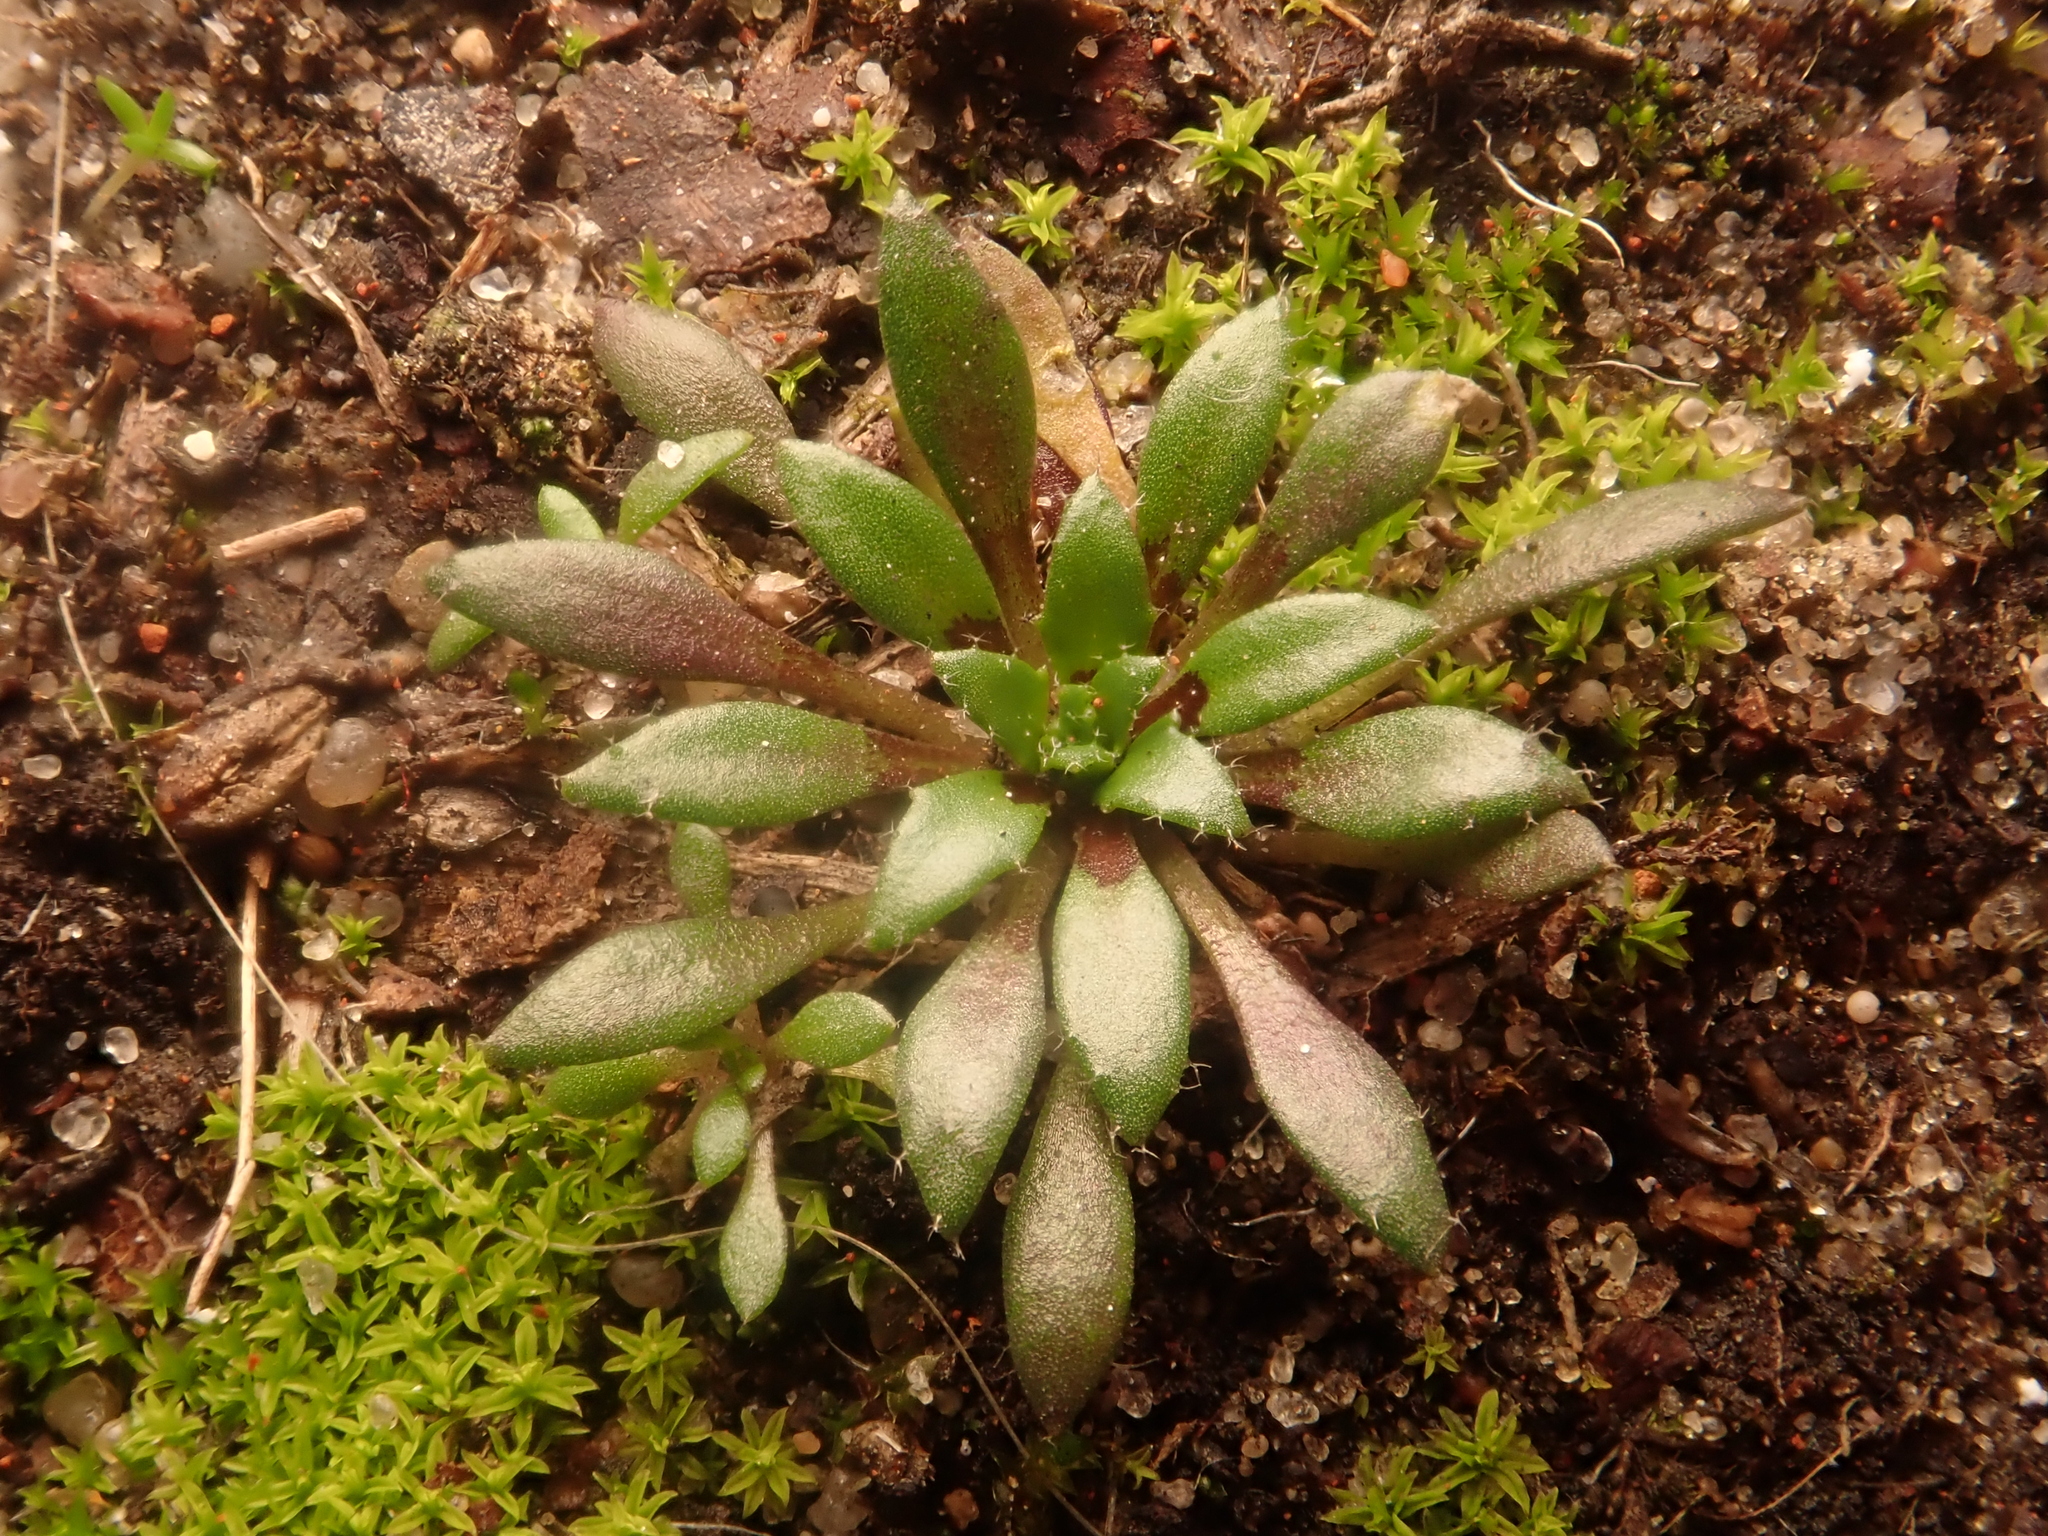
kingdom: Plantae
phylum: Tracheophyta
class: Magnoliopsida
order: Brassicales
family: Brassicaceae
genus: Draba
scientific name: Draba verna
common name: Spring draba
